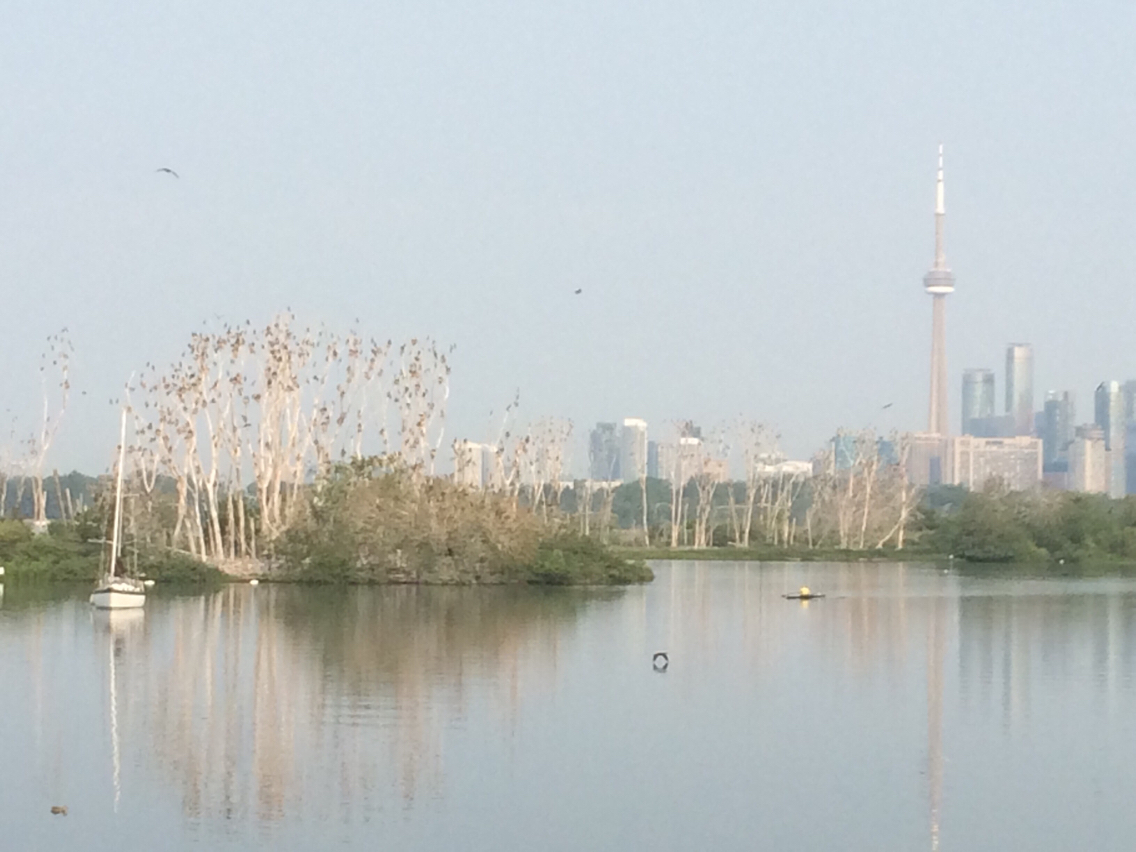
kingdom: Animalia
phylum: Chordata
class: Aves
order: Suliformes
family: Phalacrocoracidae
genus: Phalacrocorax
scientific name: Phalacrocorax auritus
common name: Double-crested cormorant
